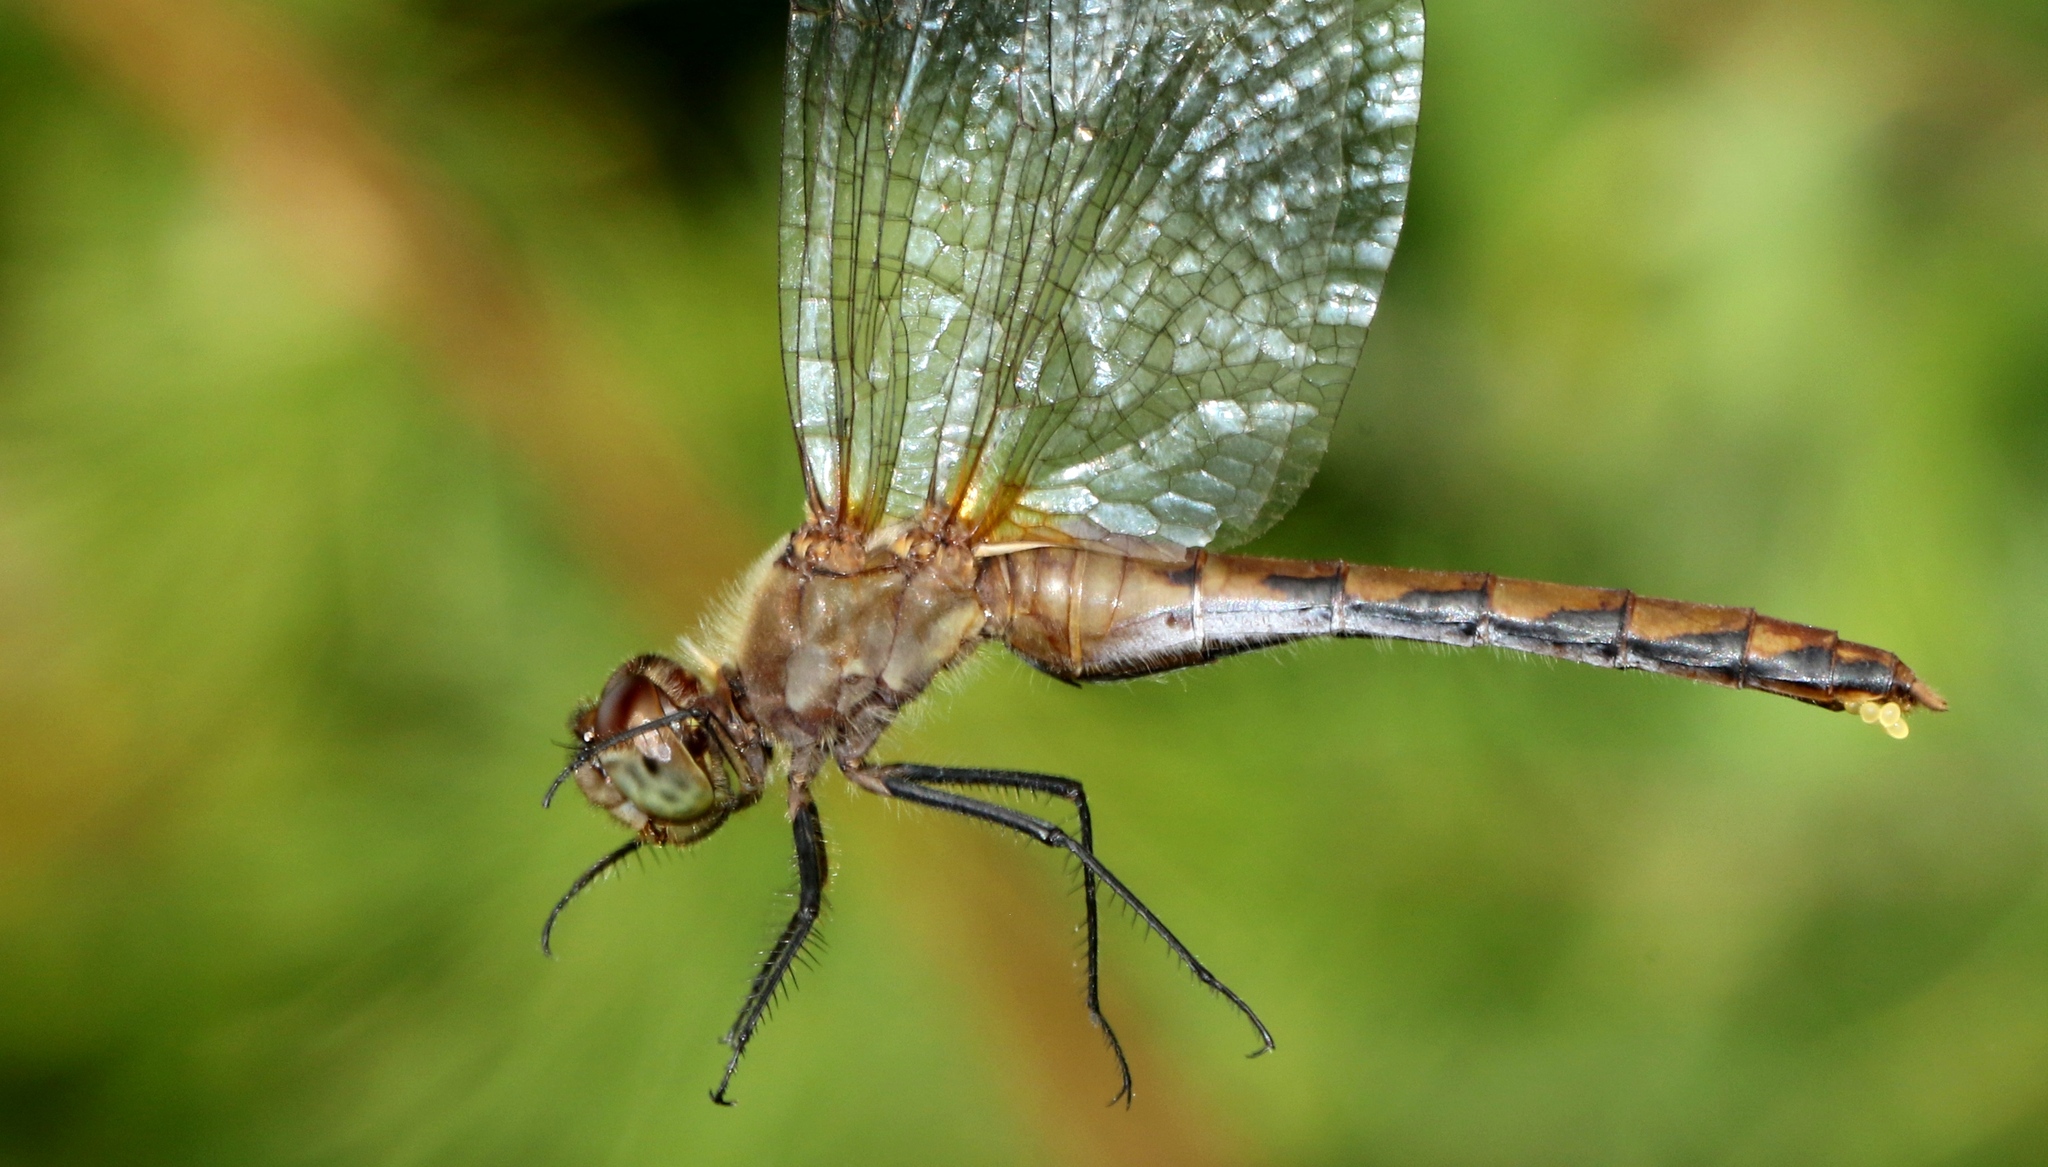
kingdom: Animalia
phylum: Arthropoda
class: Insecta
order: Odonata
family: Libellulidae
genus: Sympetrum
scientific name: Sympetrum obtrusum
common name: White-faced meadowhawk
